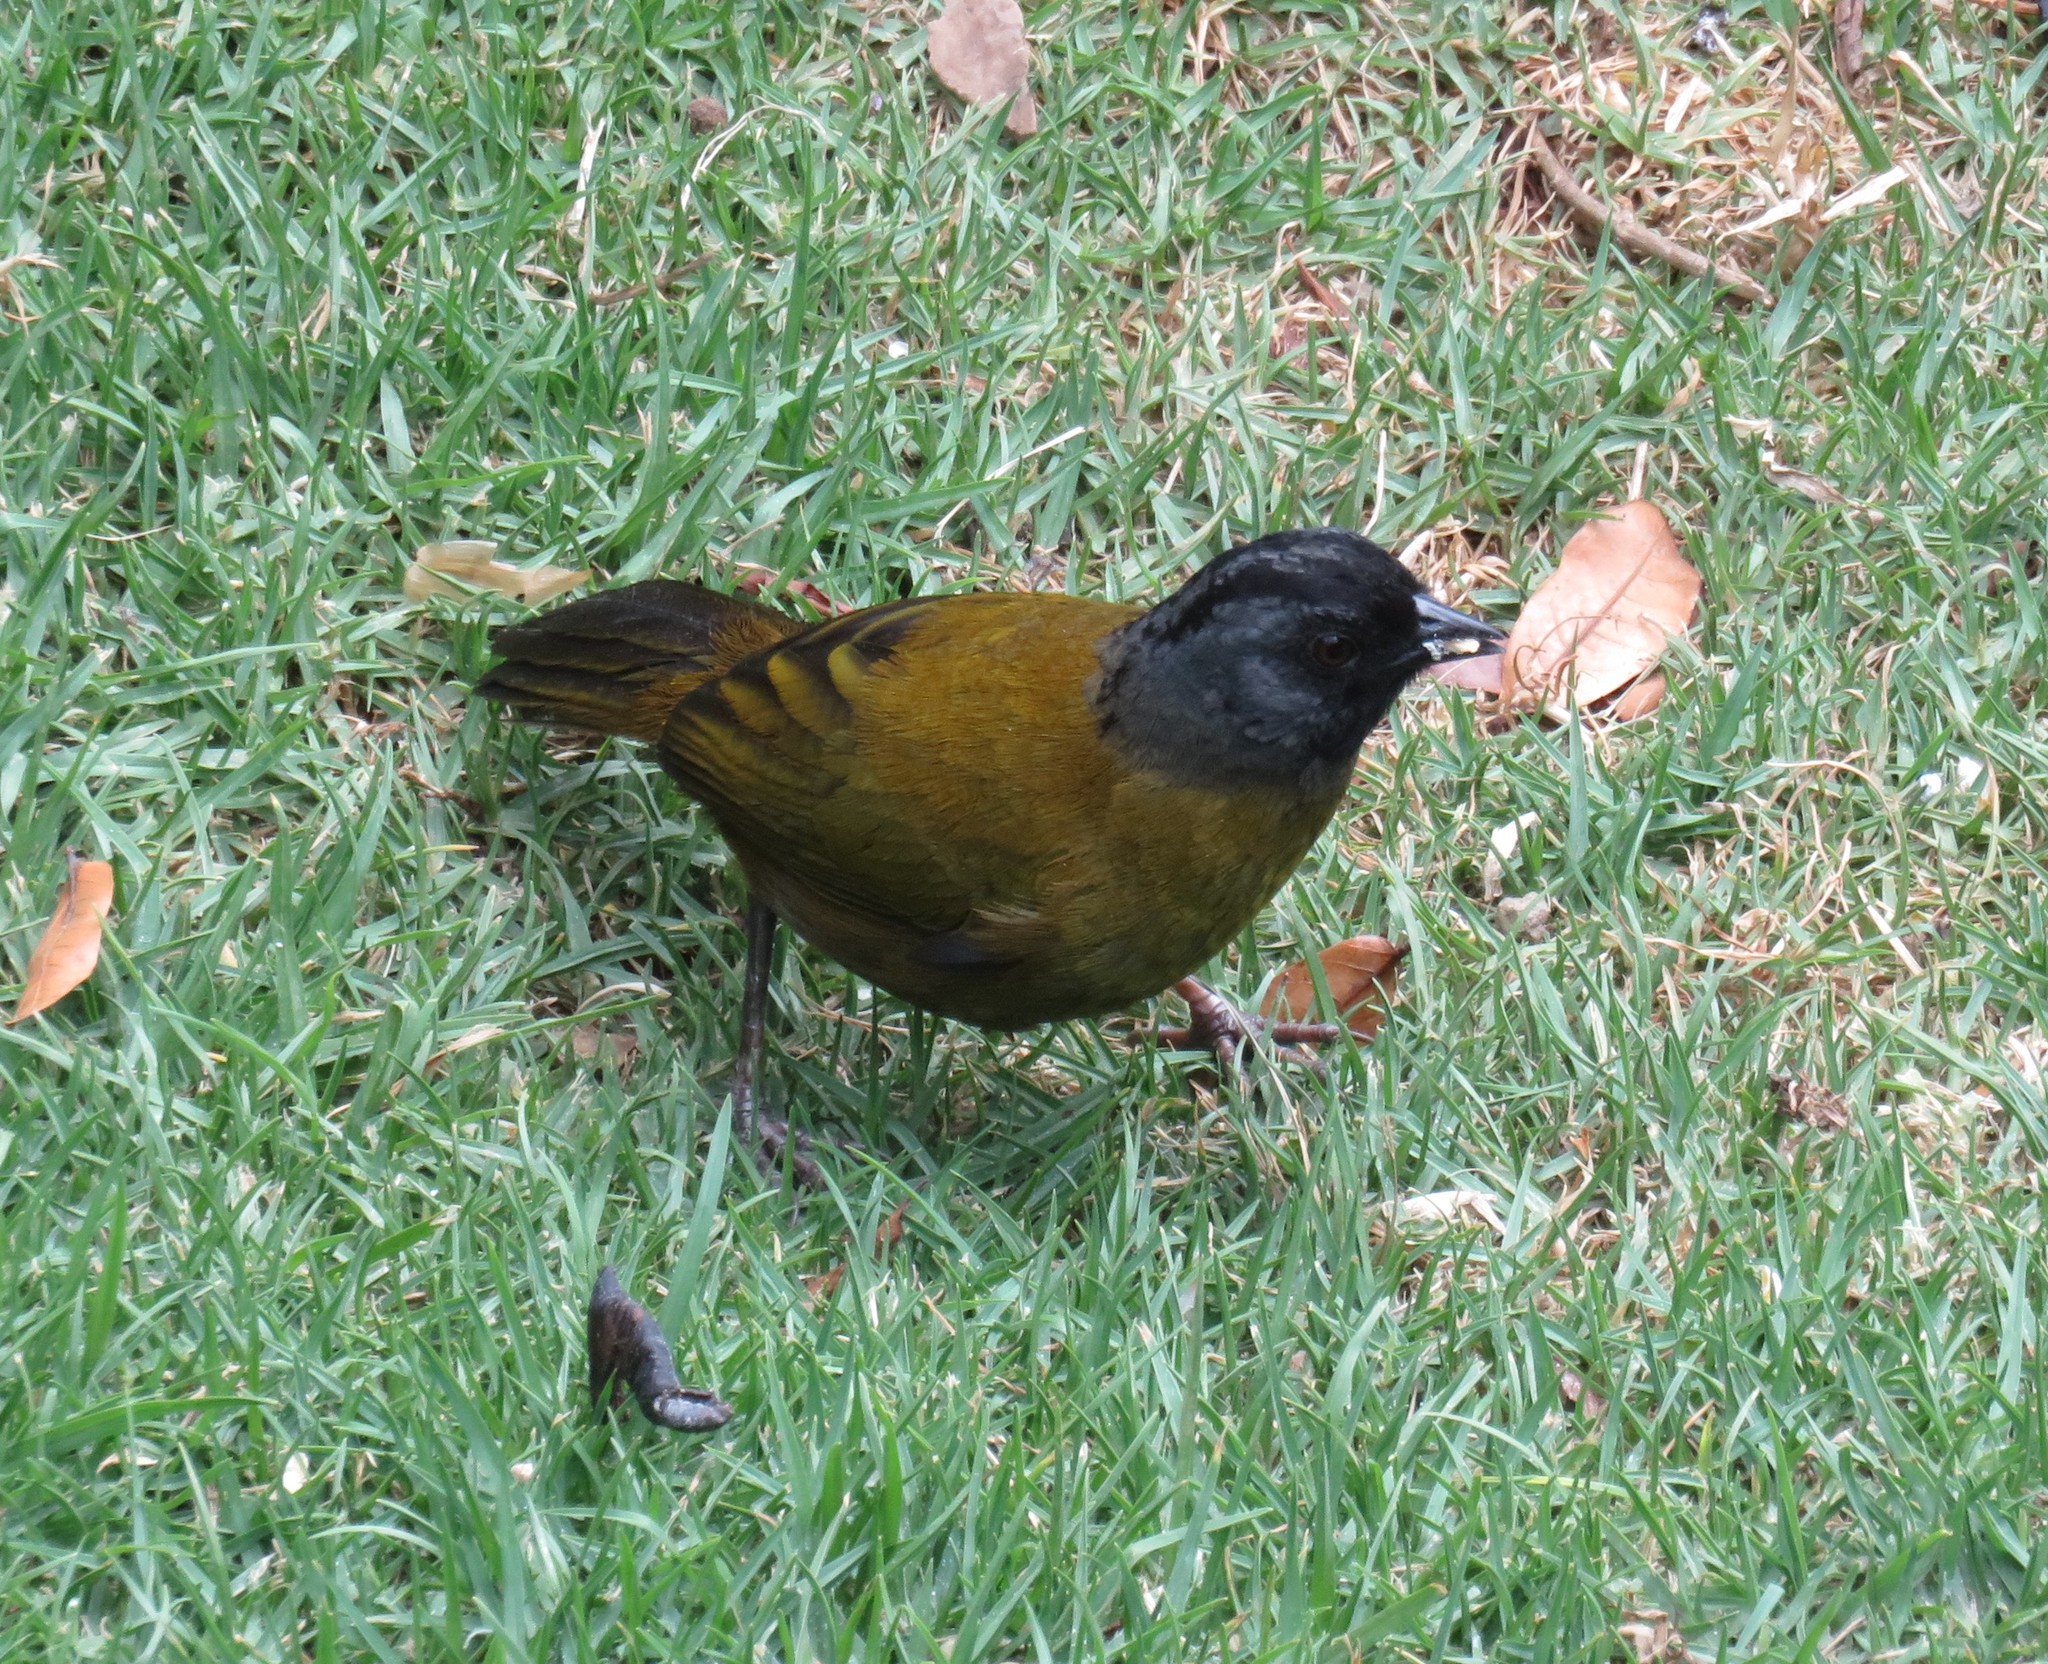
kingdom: Animalia
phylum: Chordata
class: Aves
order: Passeriformes
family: Passerellidae
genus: Pezopetes
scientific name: Pezopetes capitalis
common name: Large-footed finch
